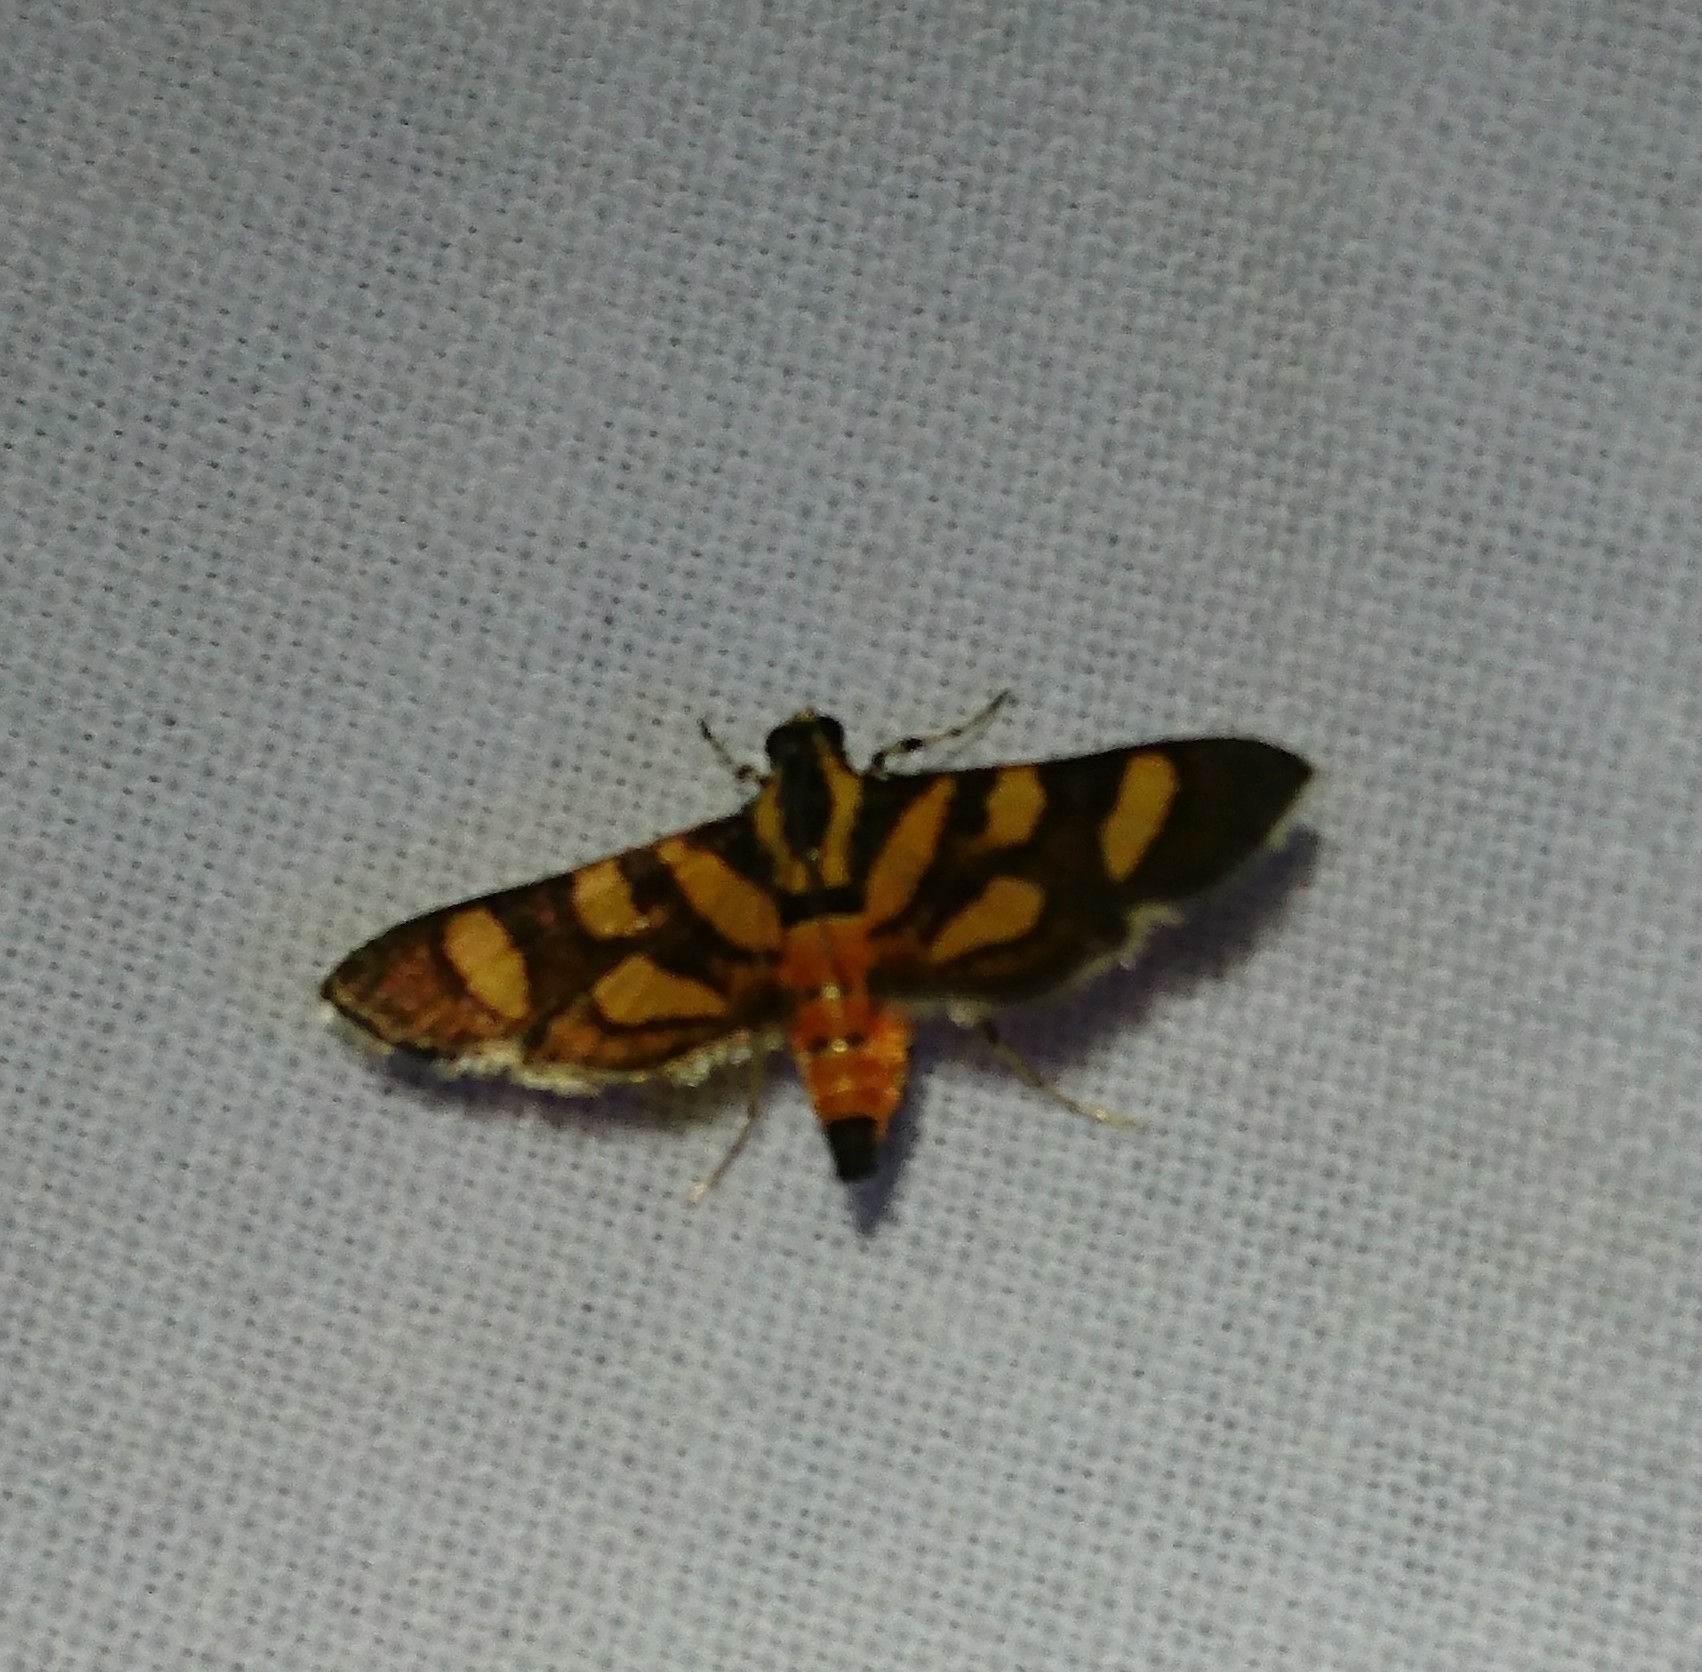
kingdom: Animalia
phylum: Arthropoda
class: Insecta
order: Lepidoptera
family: Crambidae
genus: Syngamia
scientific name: Syngamia florella
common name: Orange-spotted flower moth
